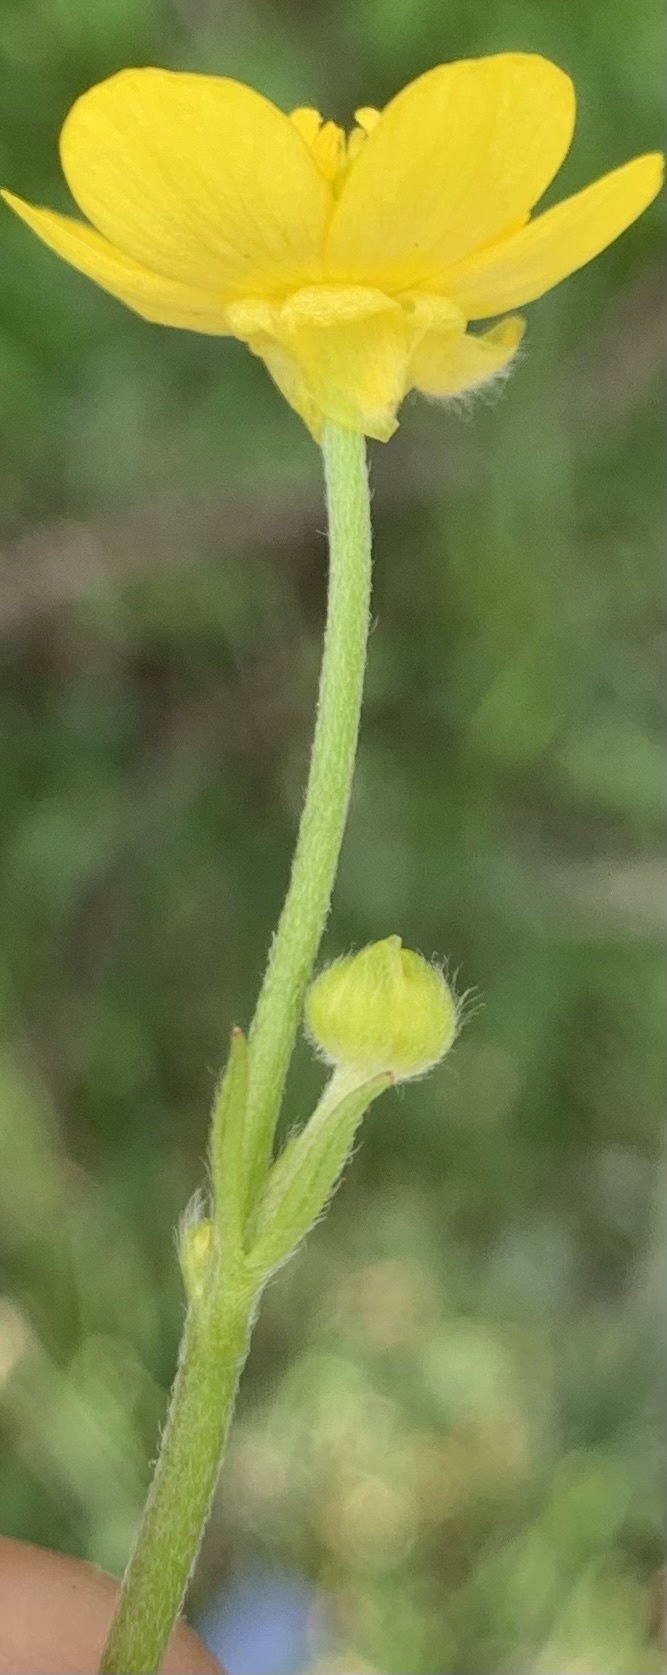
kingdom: Plantae
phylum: Tracheophyta
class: Magnoliopsida
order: Ranunculales
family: Ranunculaceae
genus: Ranunculus
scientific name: Ranunculus acriformis
